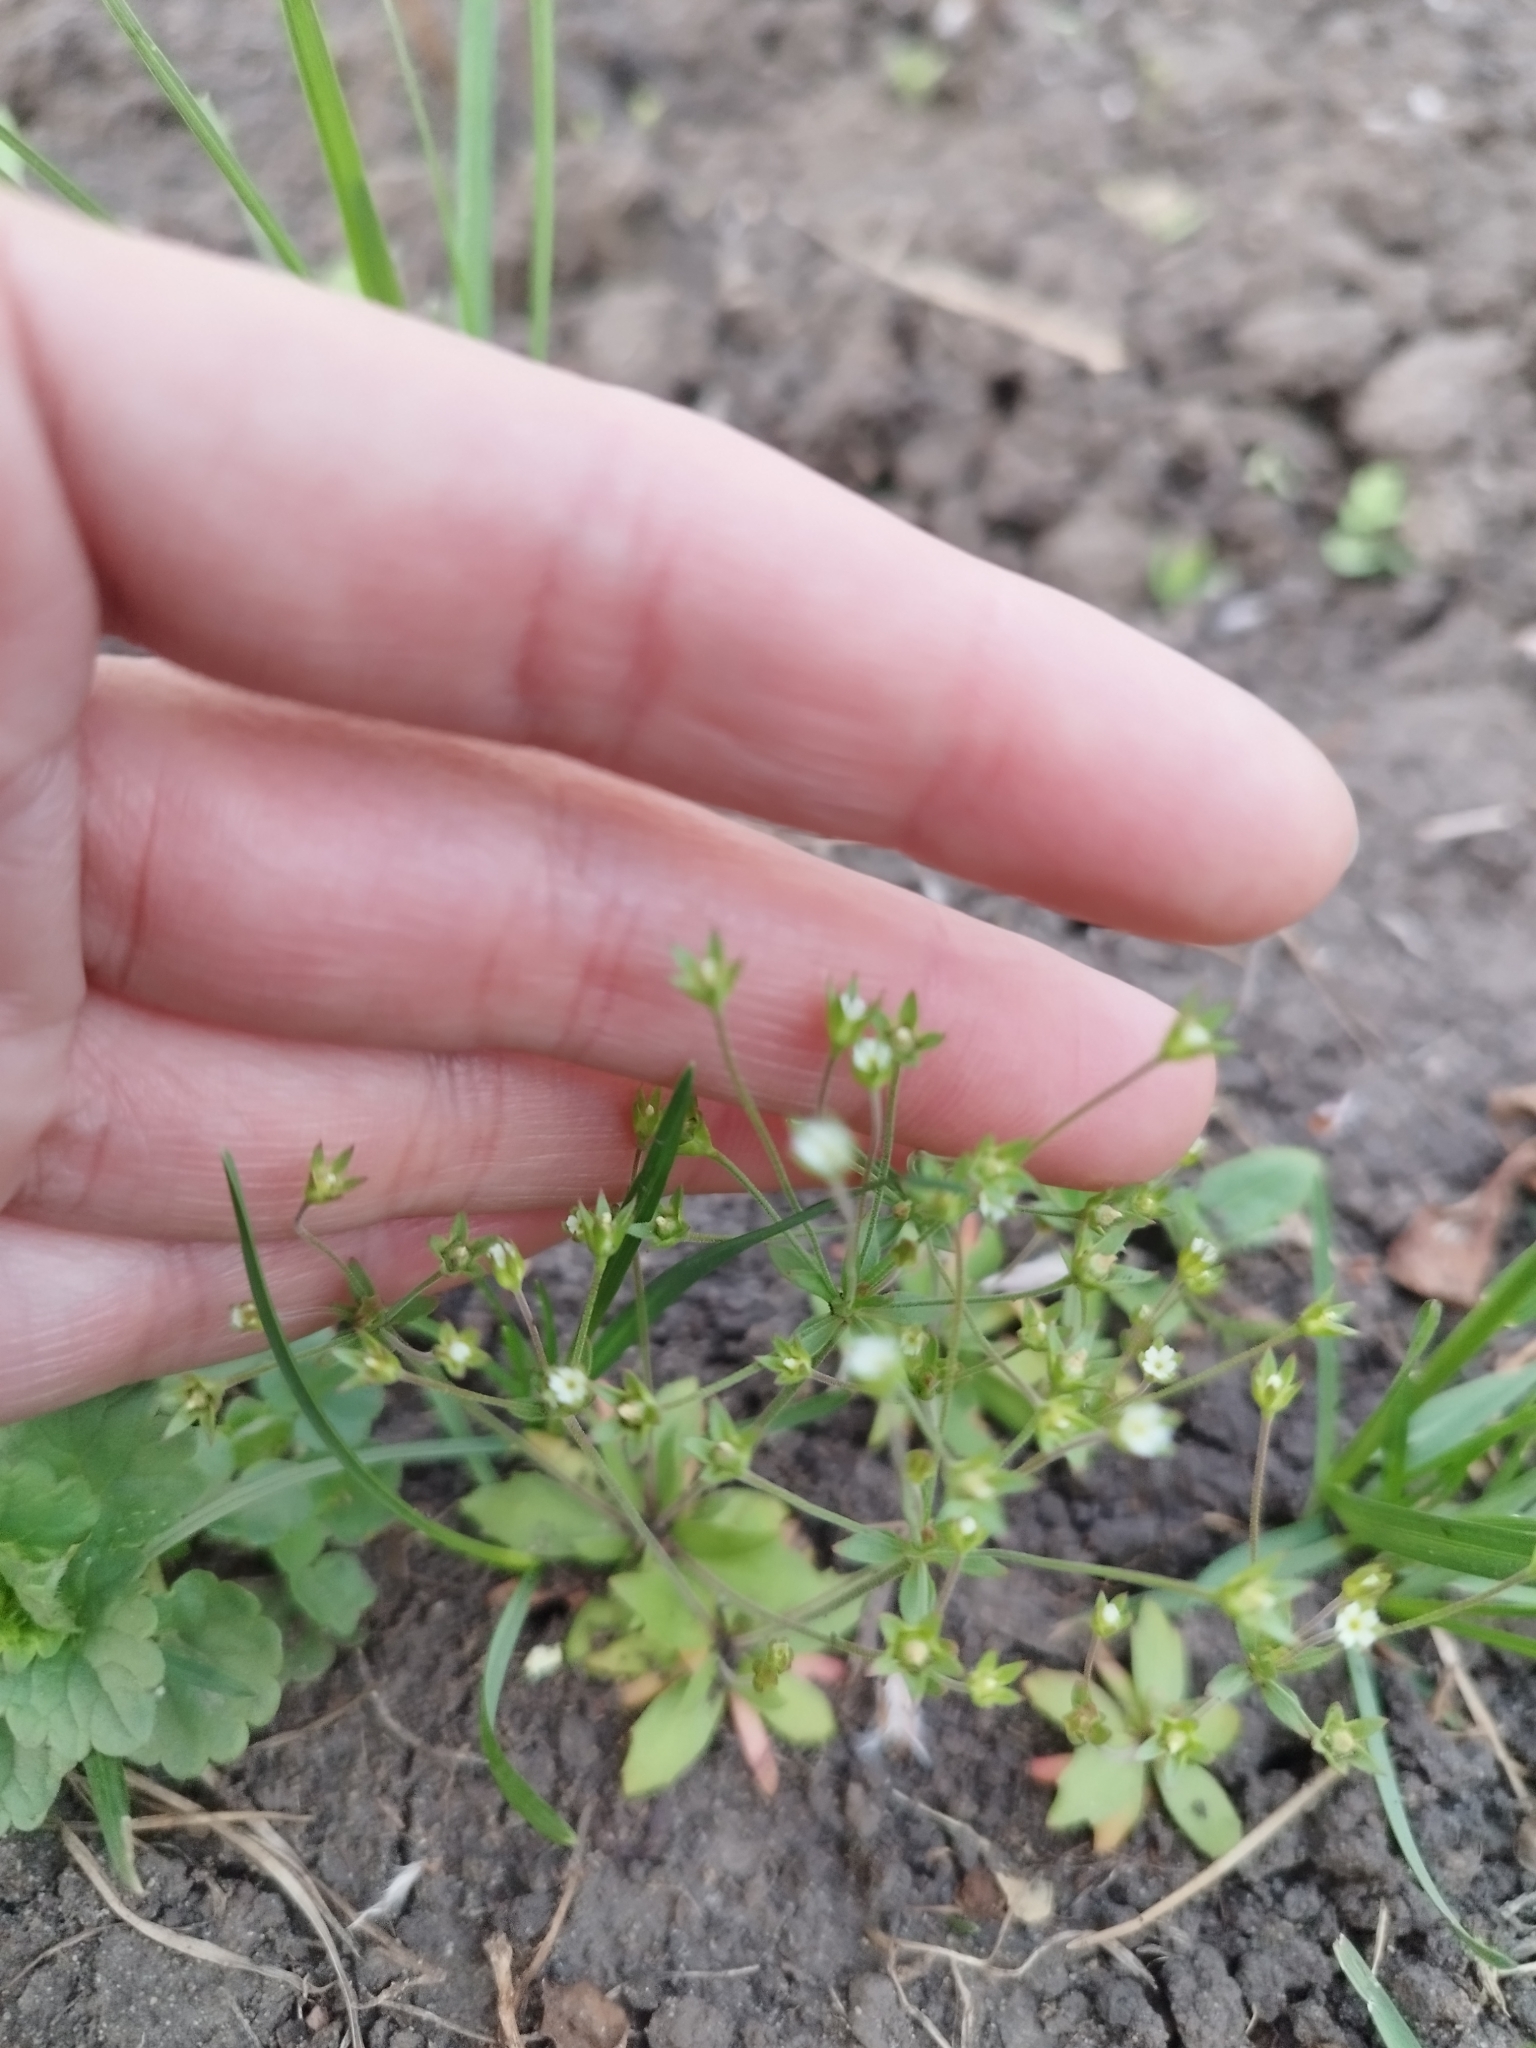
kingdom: Plantae
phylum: Tracheophyta
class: Magnoliopsida
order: Ericales
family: Primulaceae
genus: Androsace
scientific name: Androsace elongata
